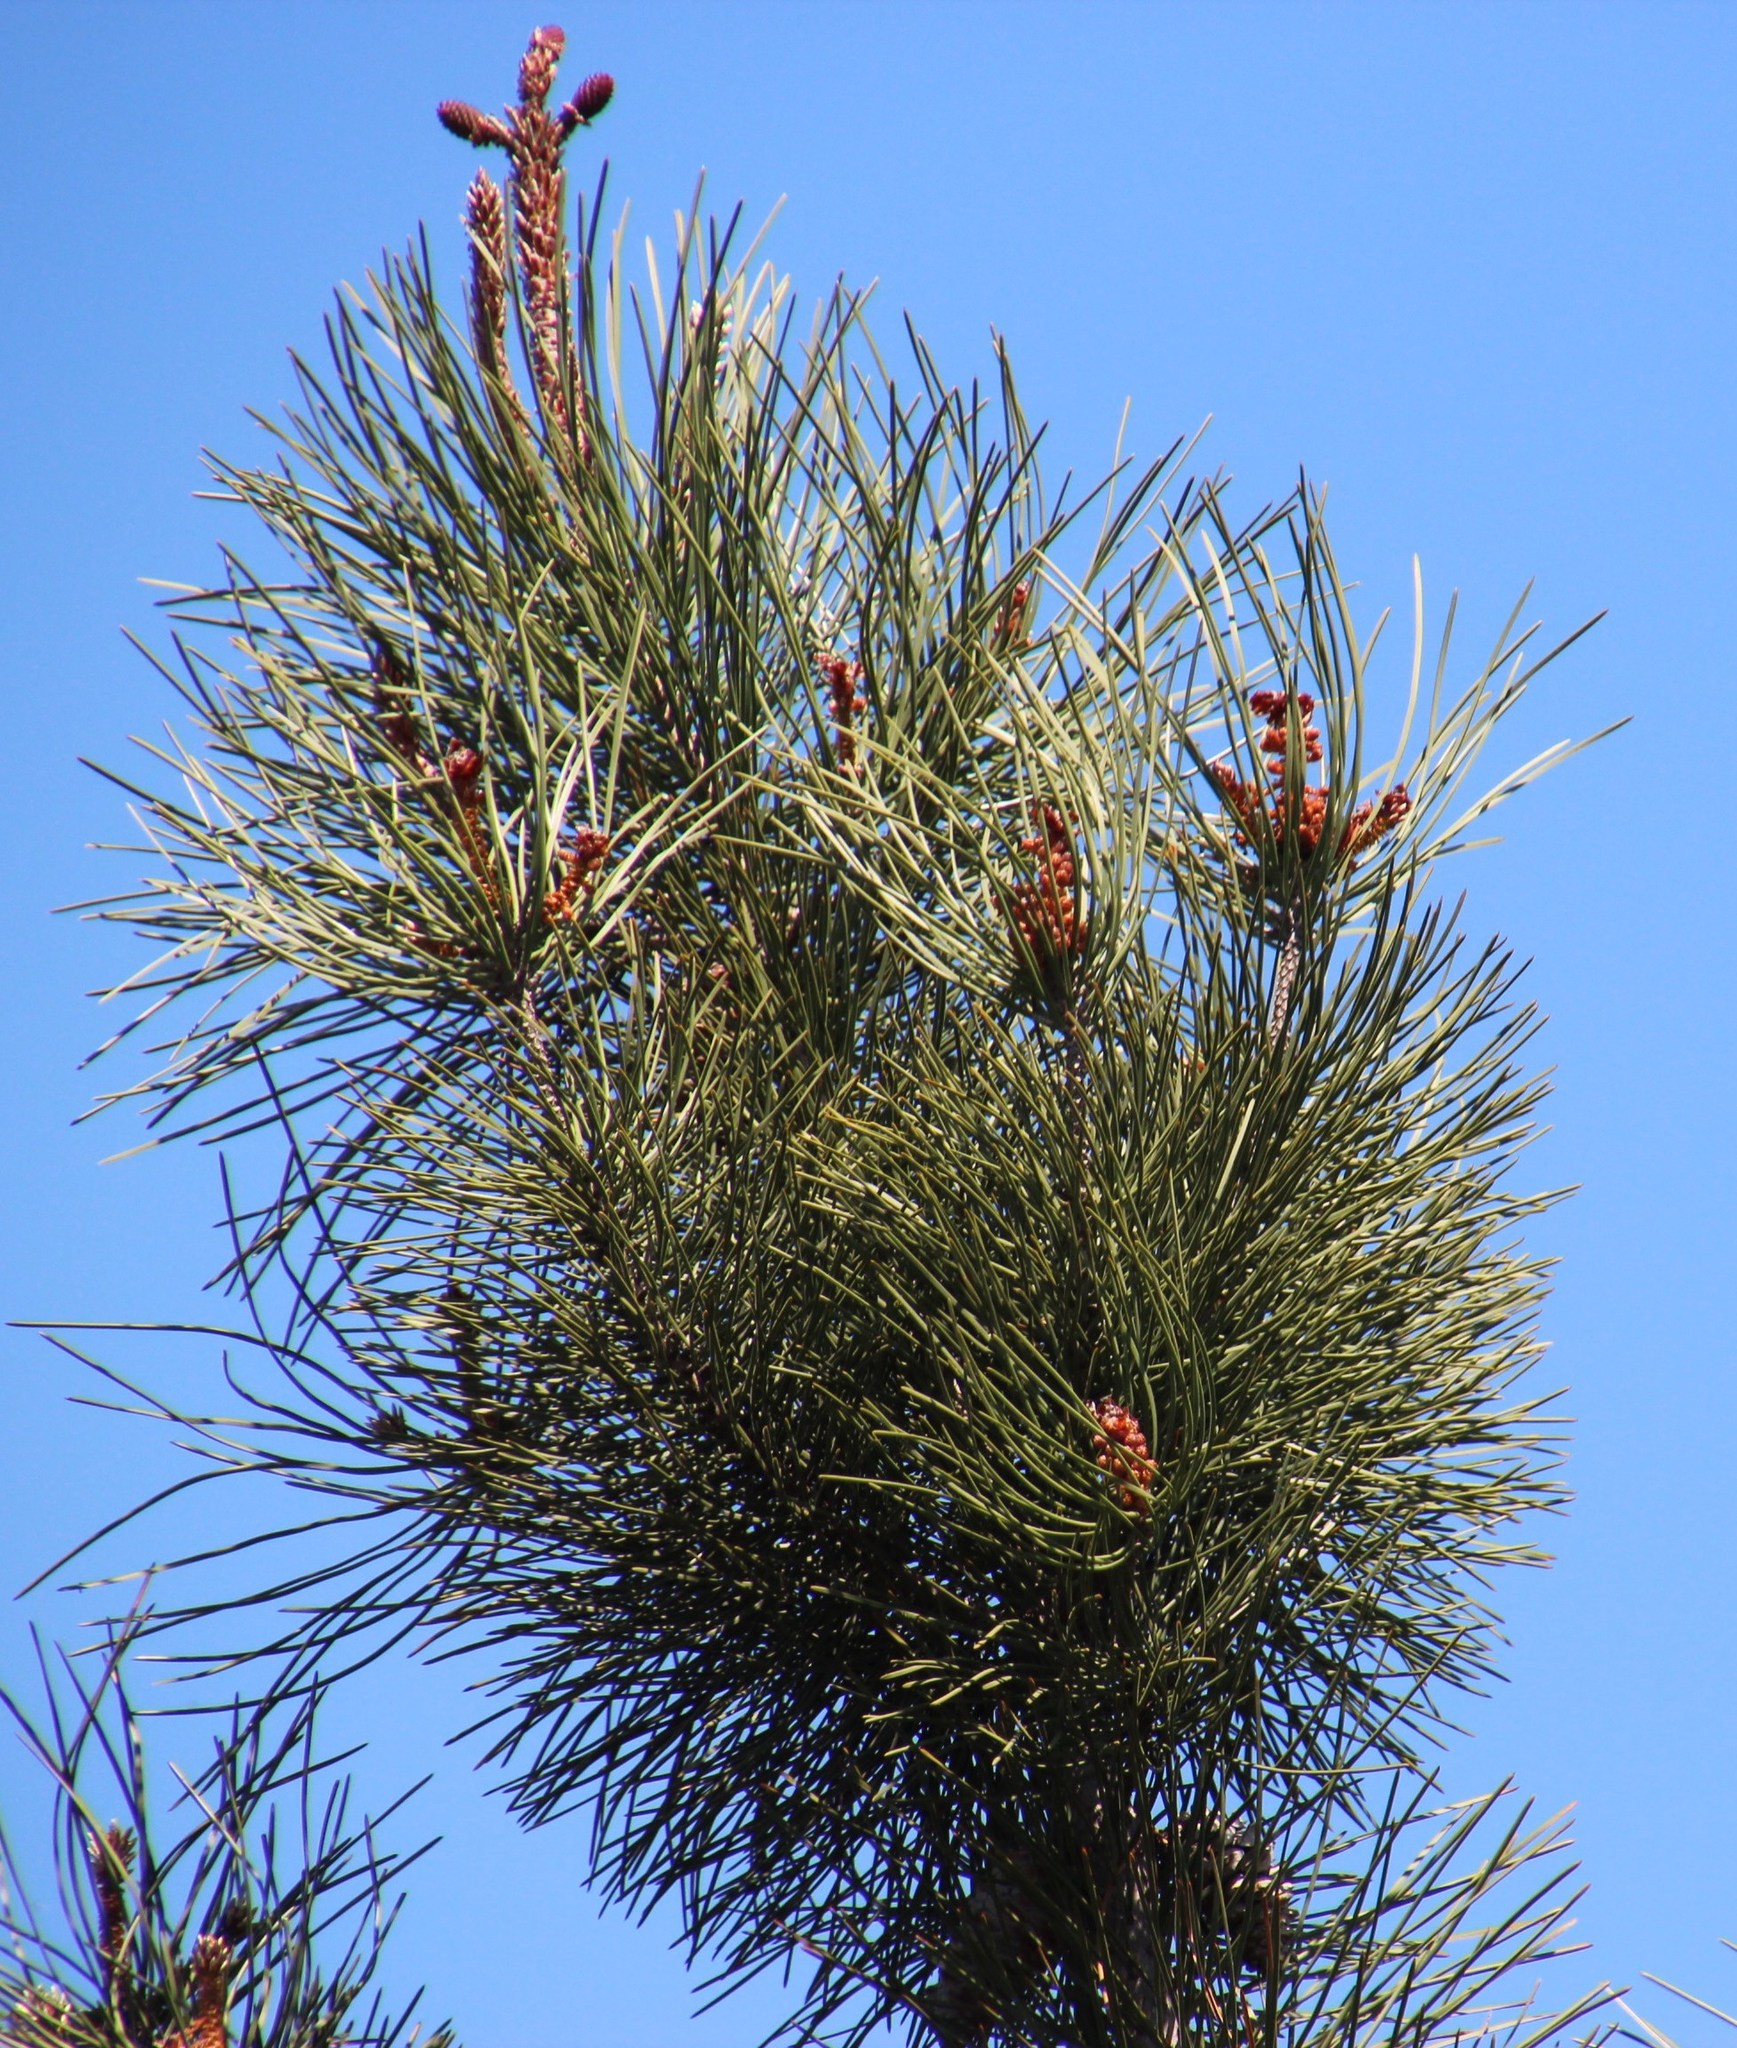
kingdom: Plantae
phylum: Tracheophyta
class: Pinopsida
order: Pinales
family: Pinaceae
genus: Pinus
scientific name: Pinus pinaster
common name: Maritime pine
